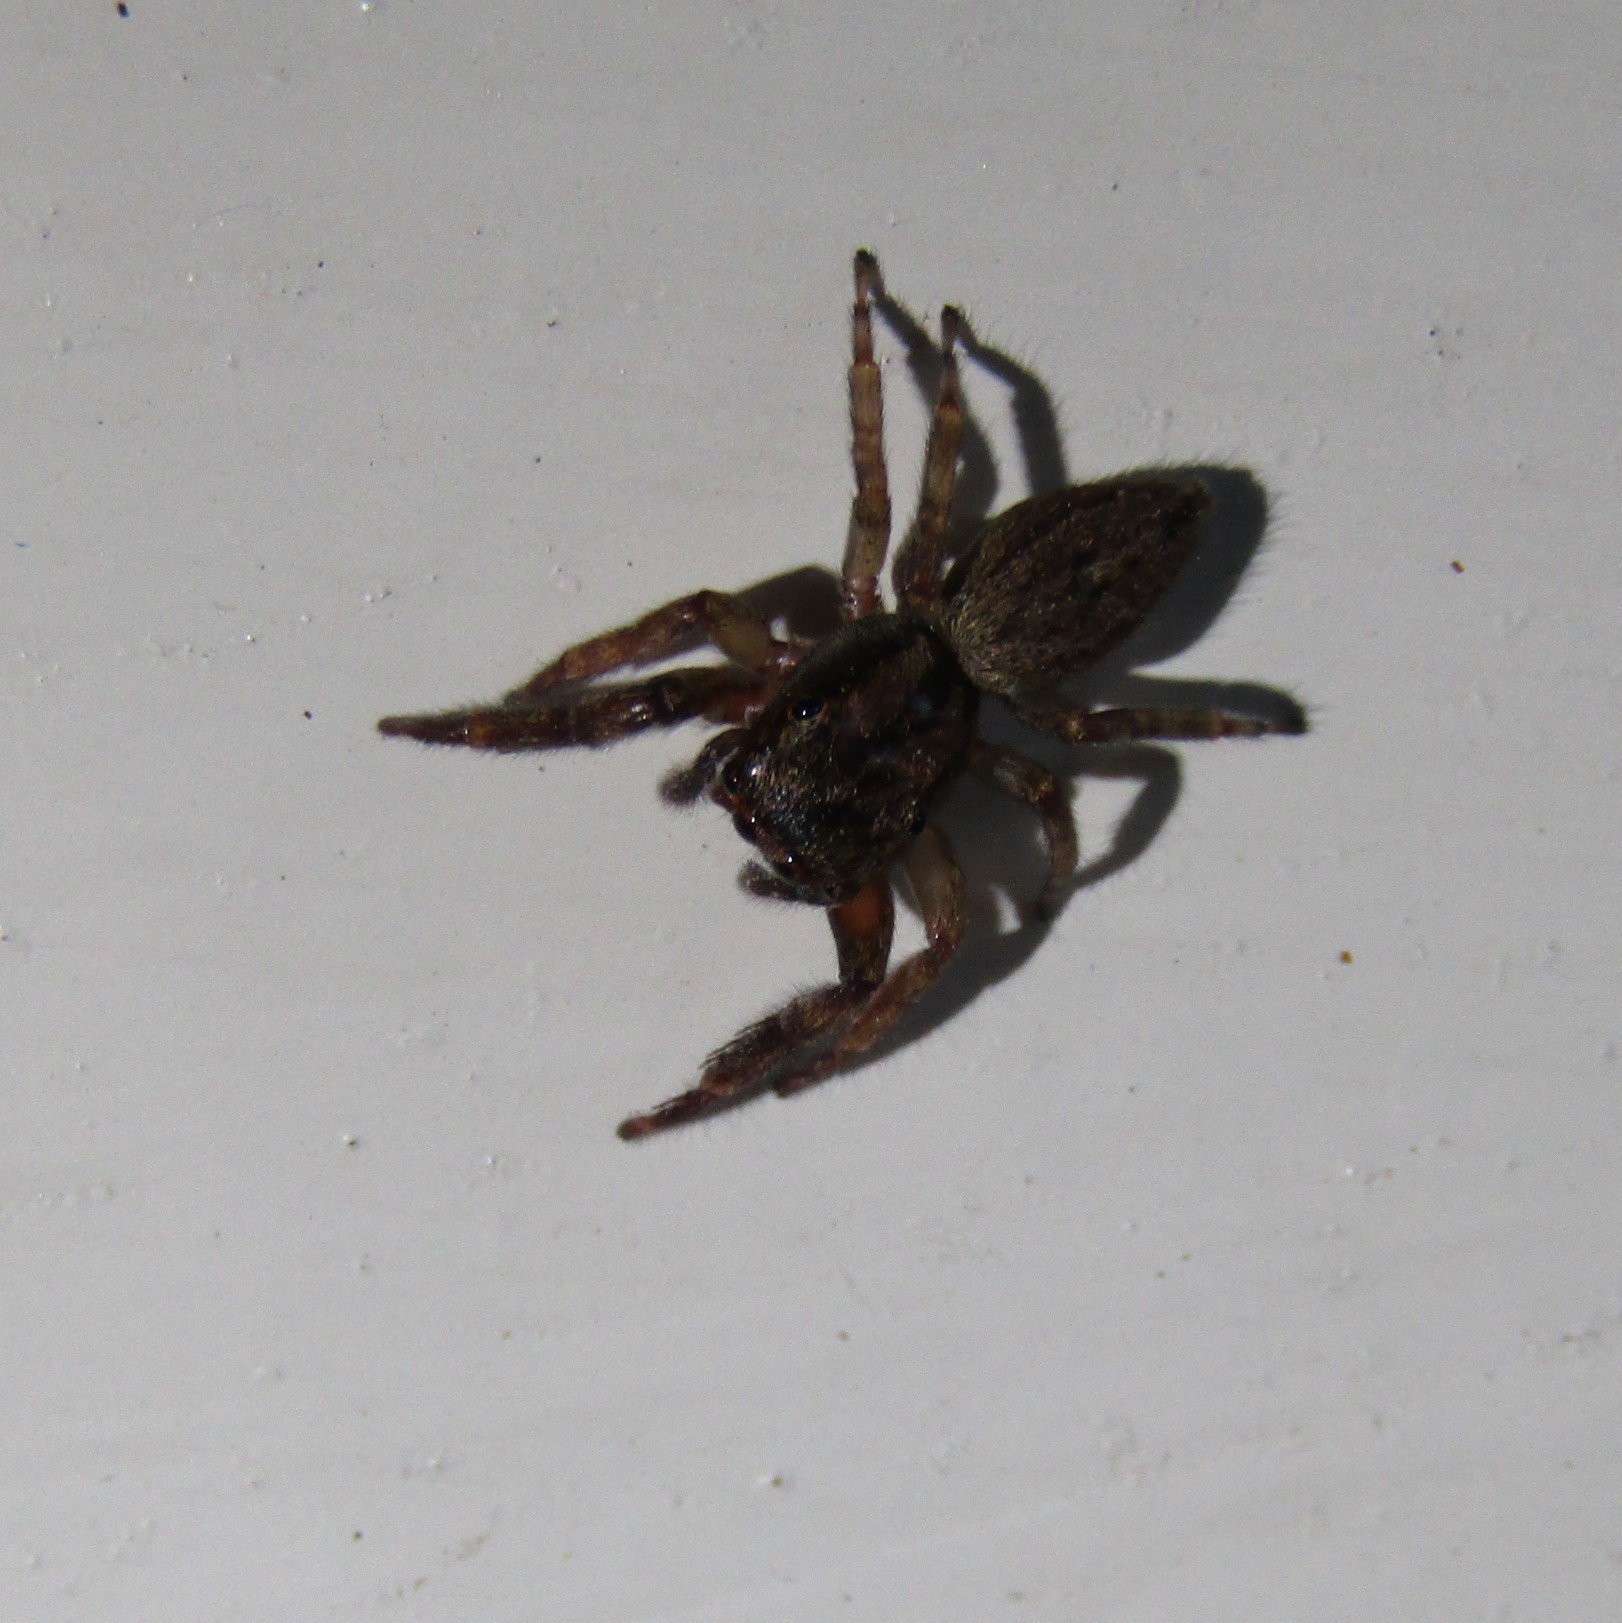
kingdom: Animalia
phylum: Arthropoda
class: Arachnida
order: Araneae
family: Salticidae
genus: Trite
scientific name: Trite auricoma
